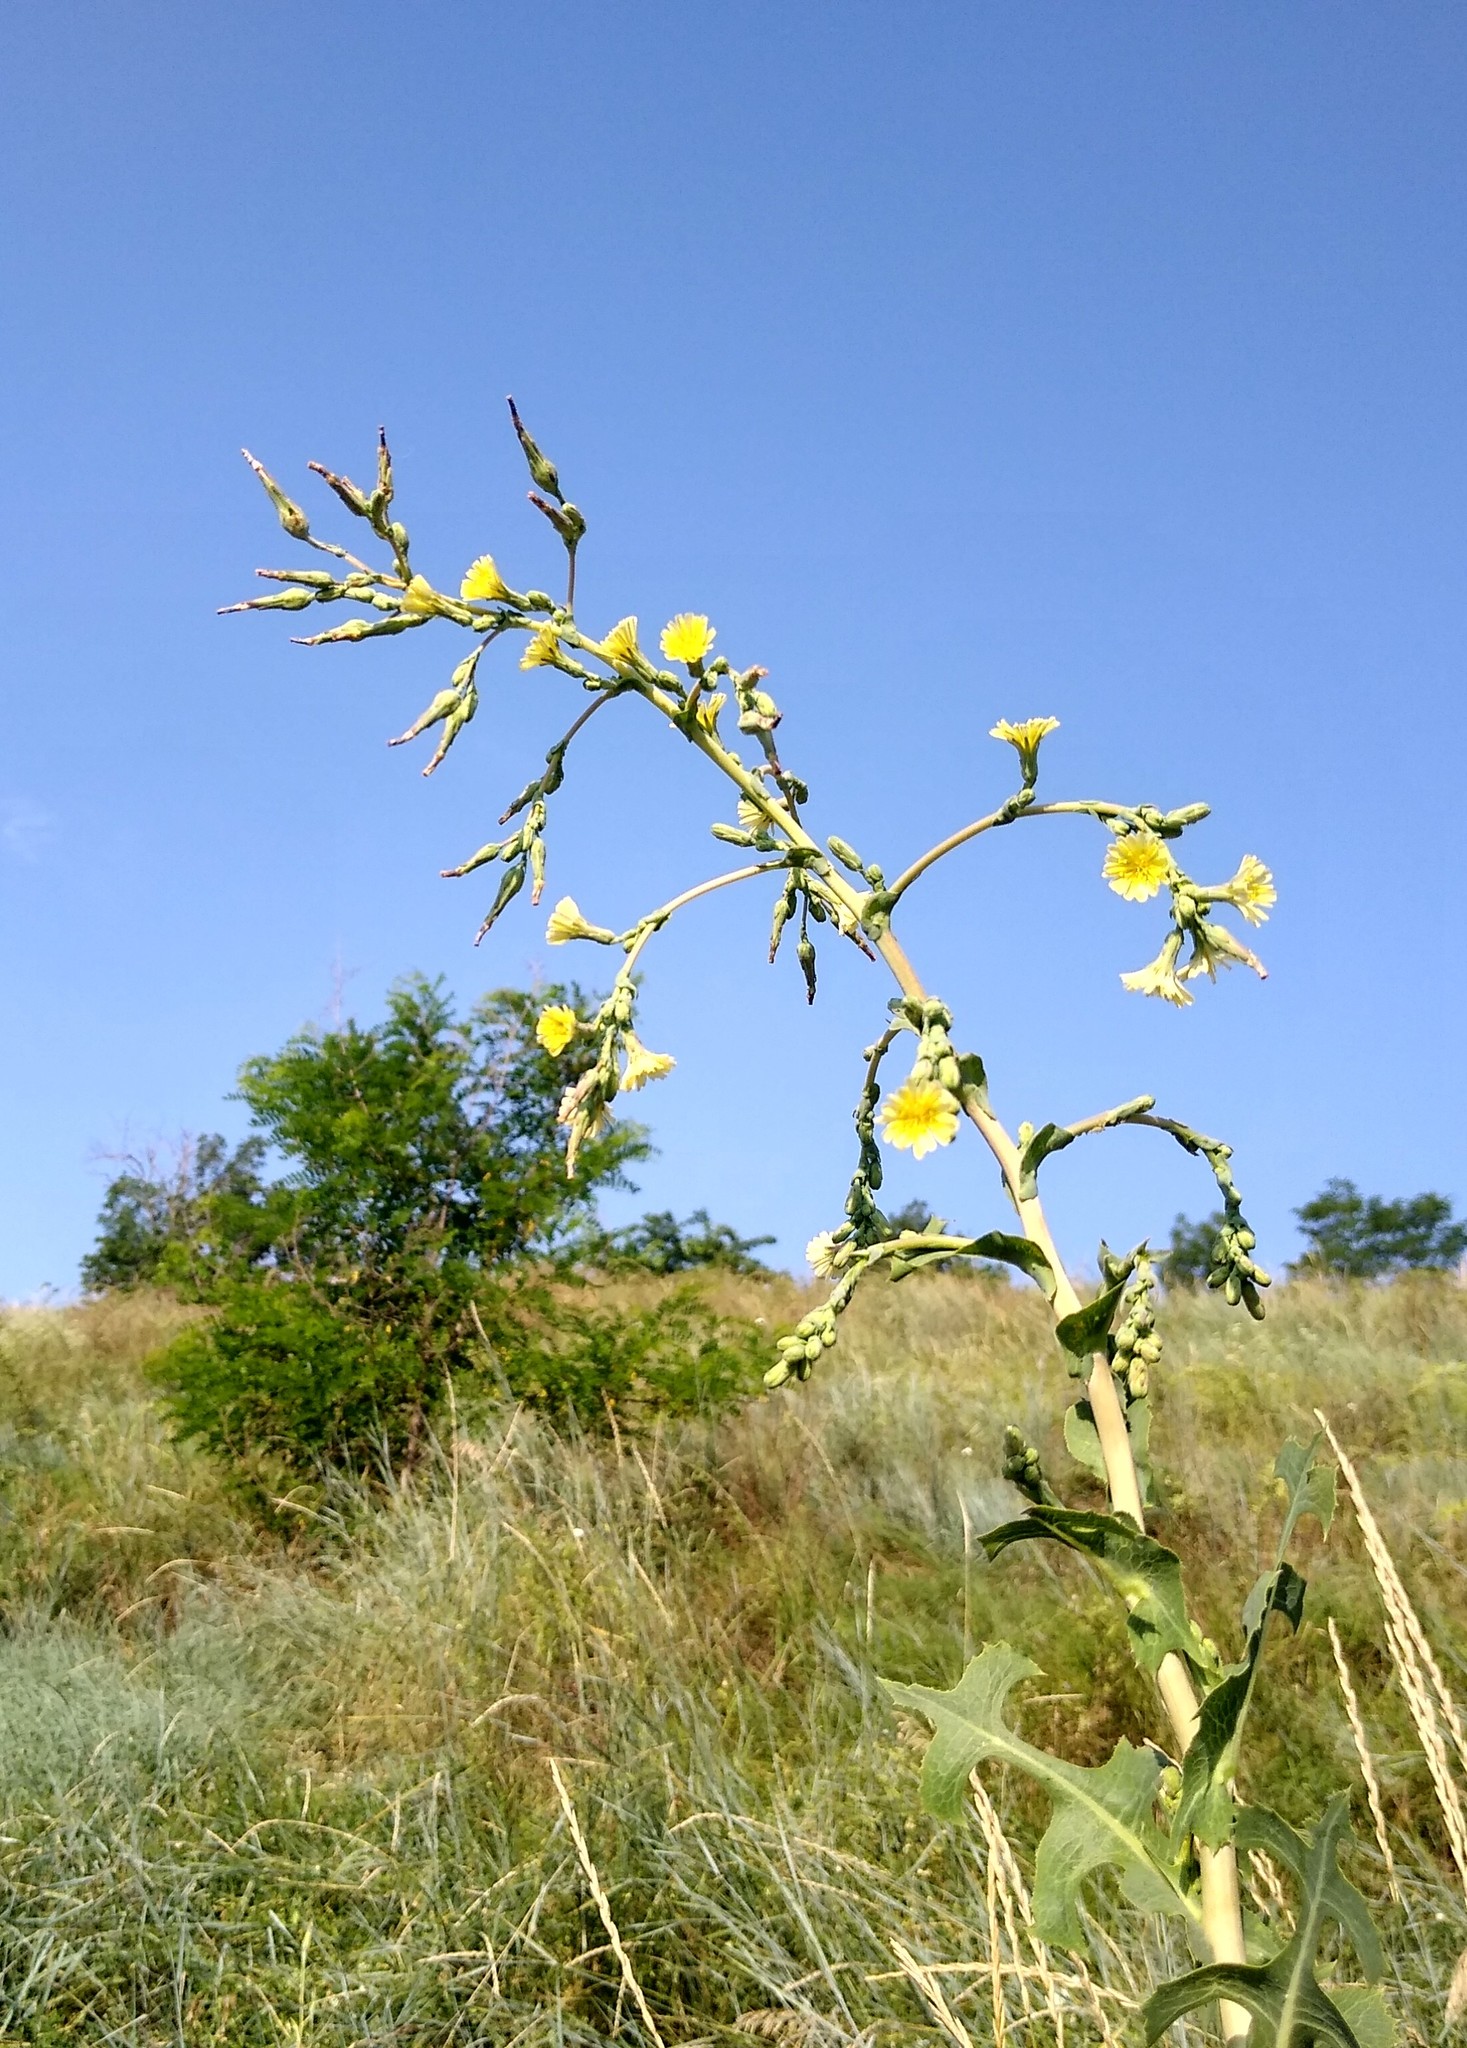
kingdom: Plantae
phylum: Tracheophyta
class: Magnoliopsida
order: Asterales
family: Asteraceae
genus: Lactuca
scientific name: Lactuca serriola
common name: Prickly lettuce
